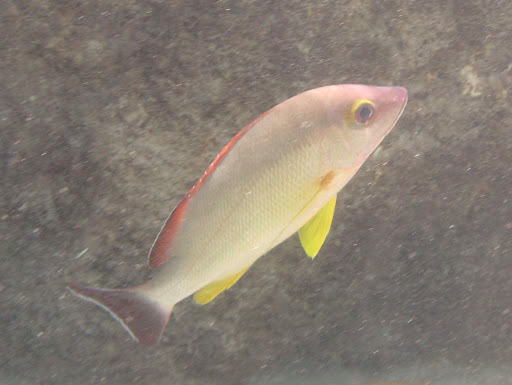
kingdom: Animalia
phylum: Chordata
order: Perciformes
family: Lutjanidae
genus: Lutjanus
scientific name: Lutjanus fulvus
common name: Blacktail snapper
